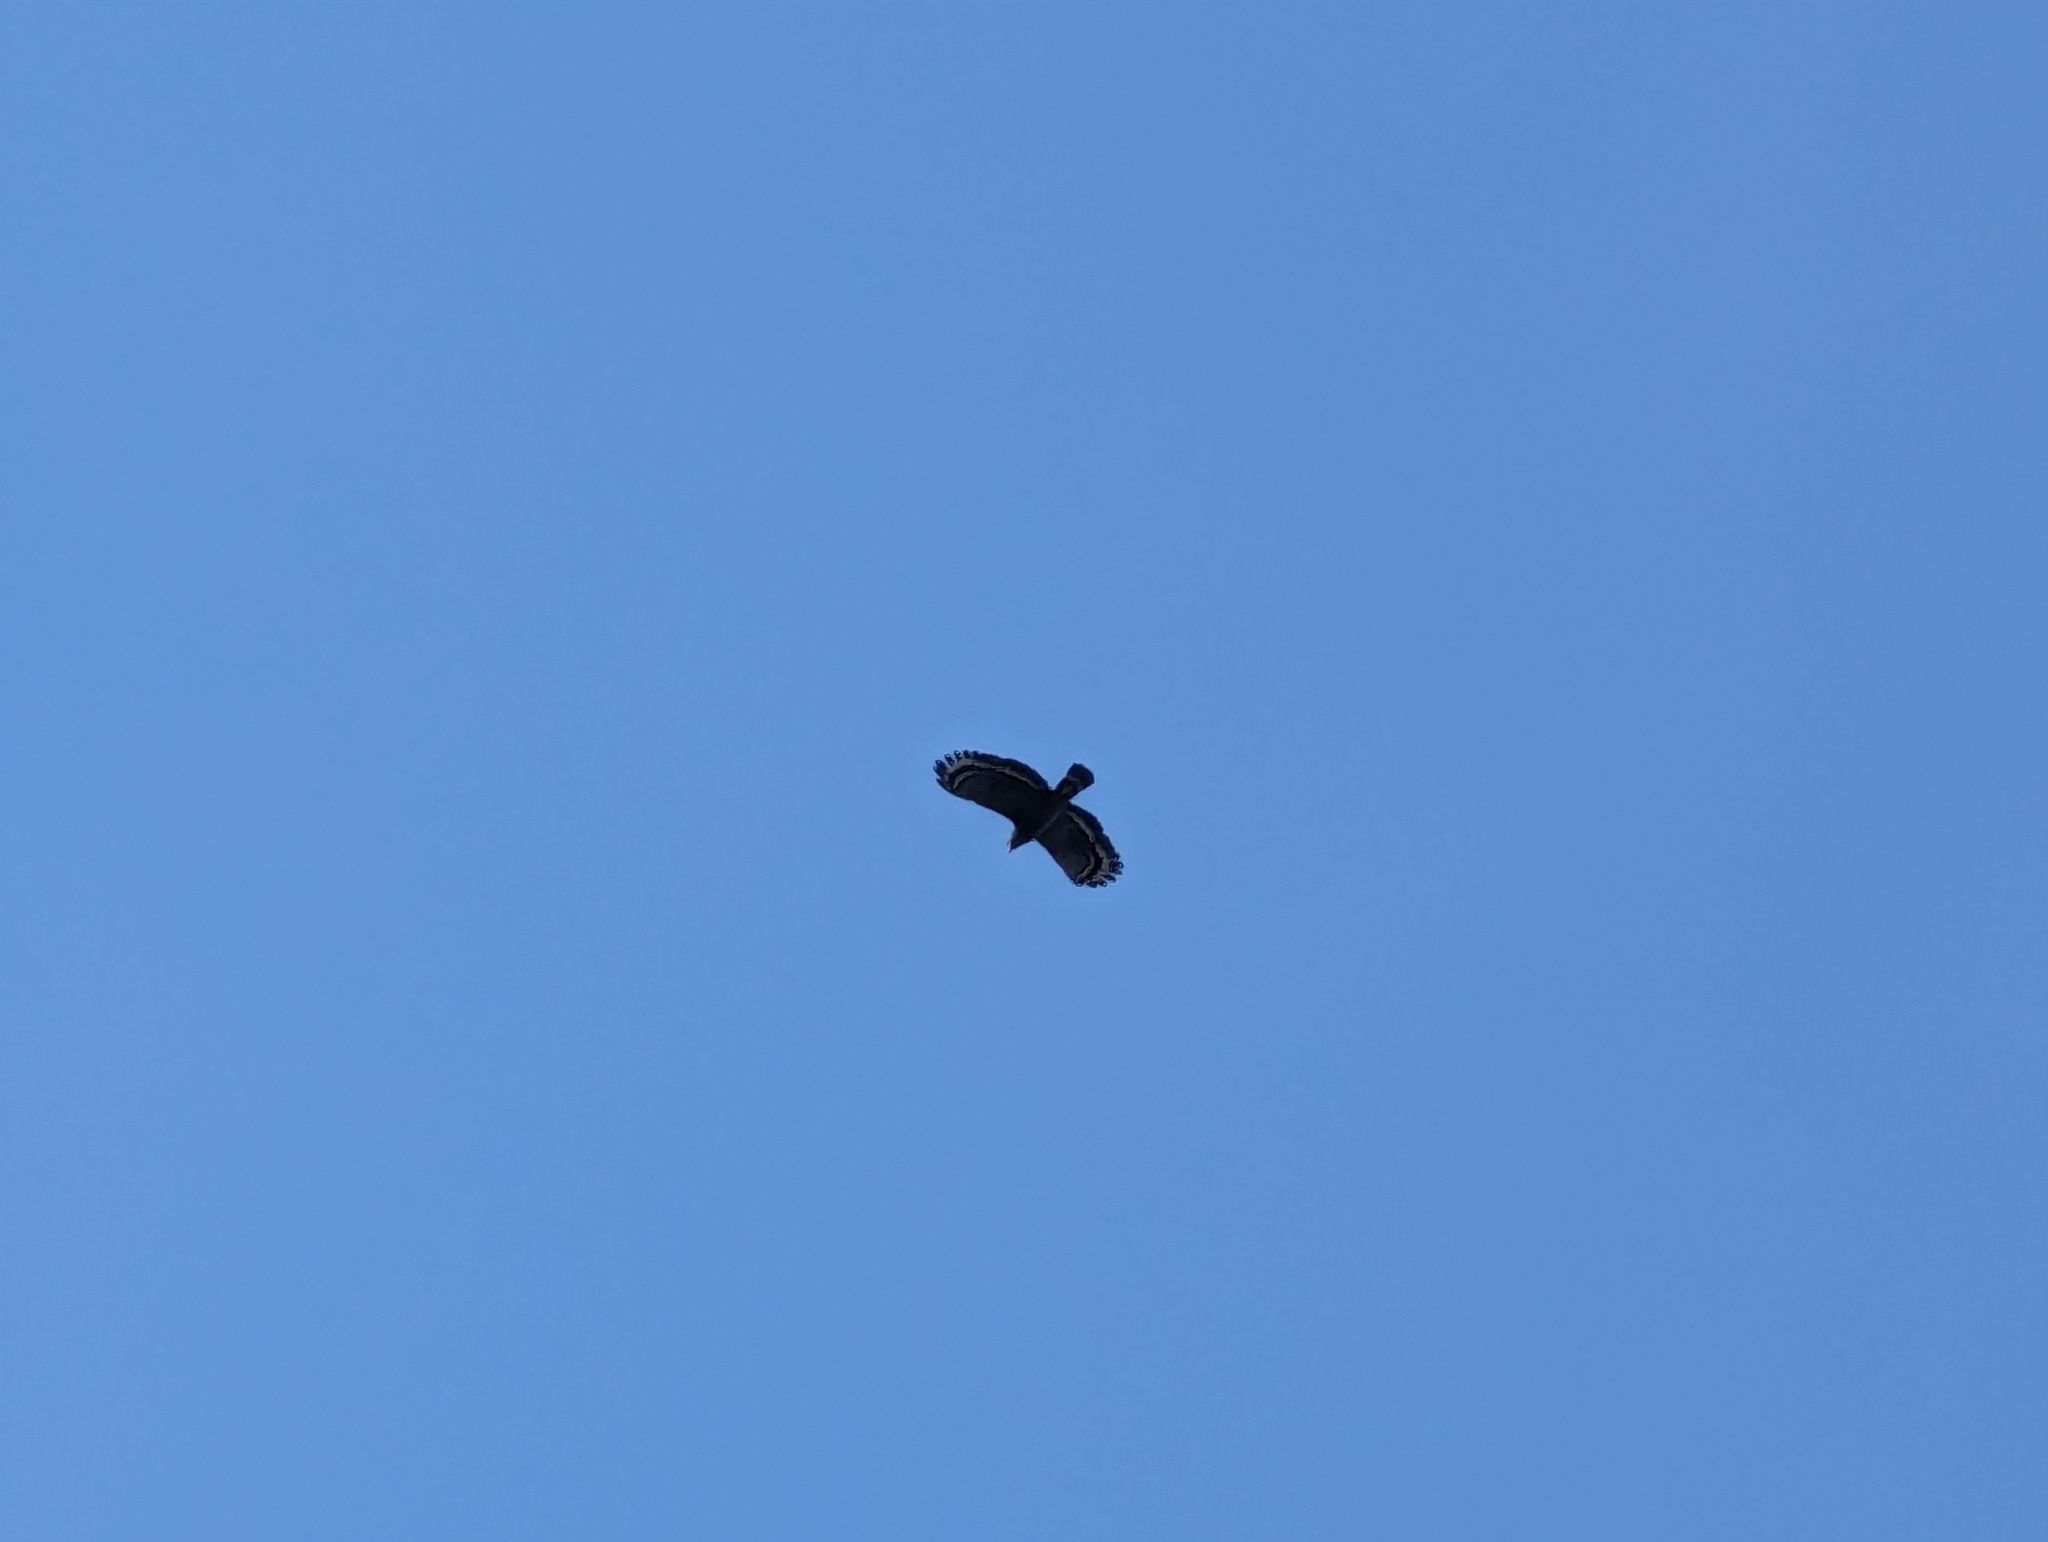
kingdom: Animalia
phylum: Chordata
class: Aves
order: Accipitriformes
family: Accipitridae
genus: Spilornis
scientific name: Spilornis cheela
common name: Crested serpent eagle
